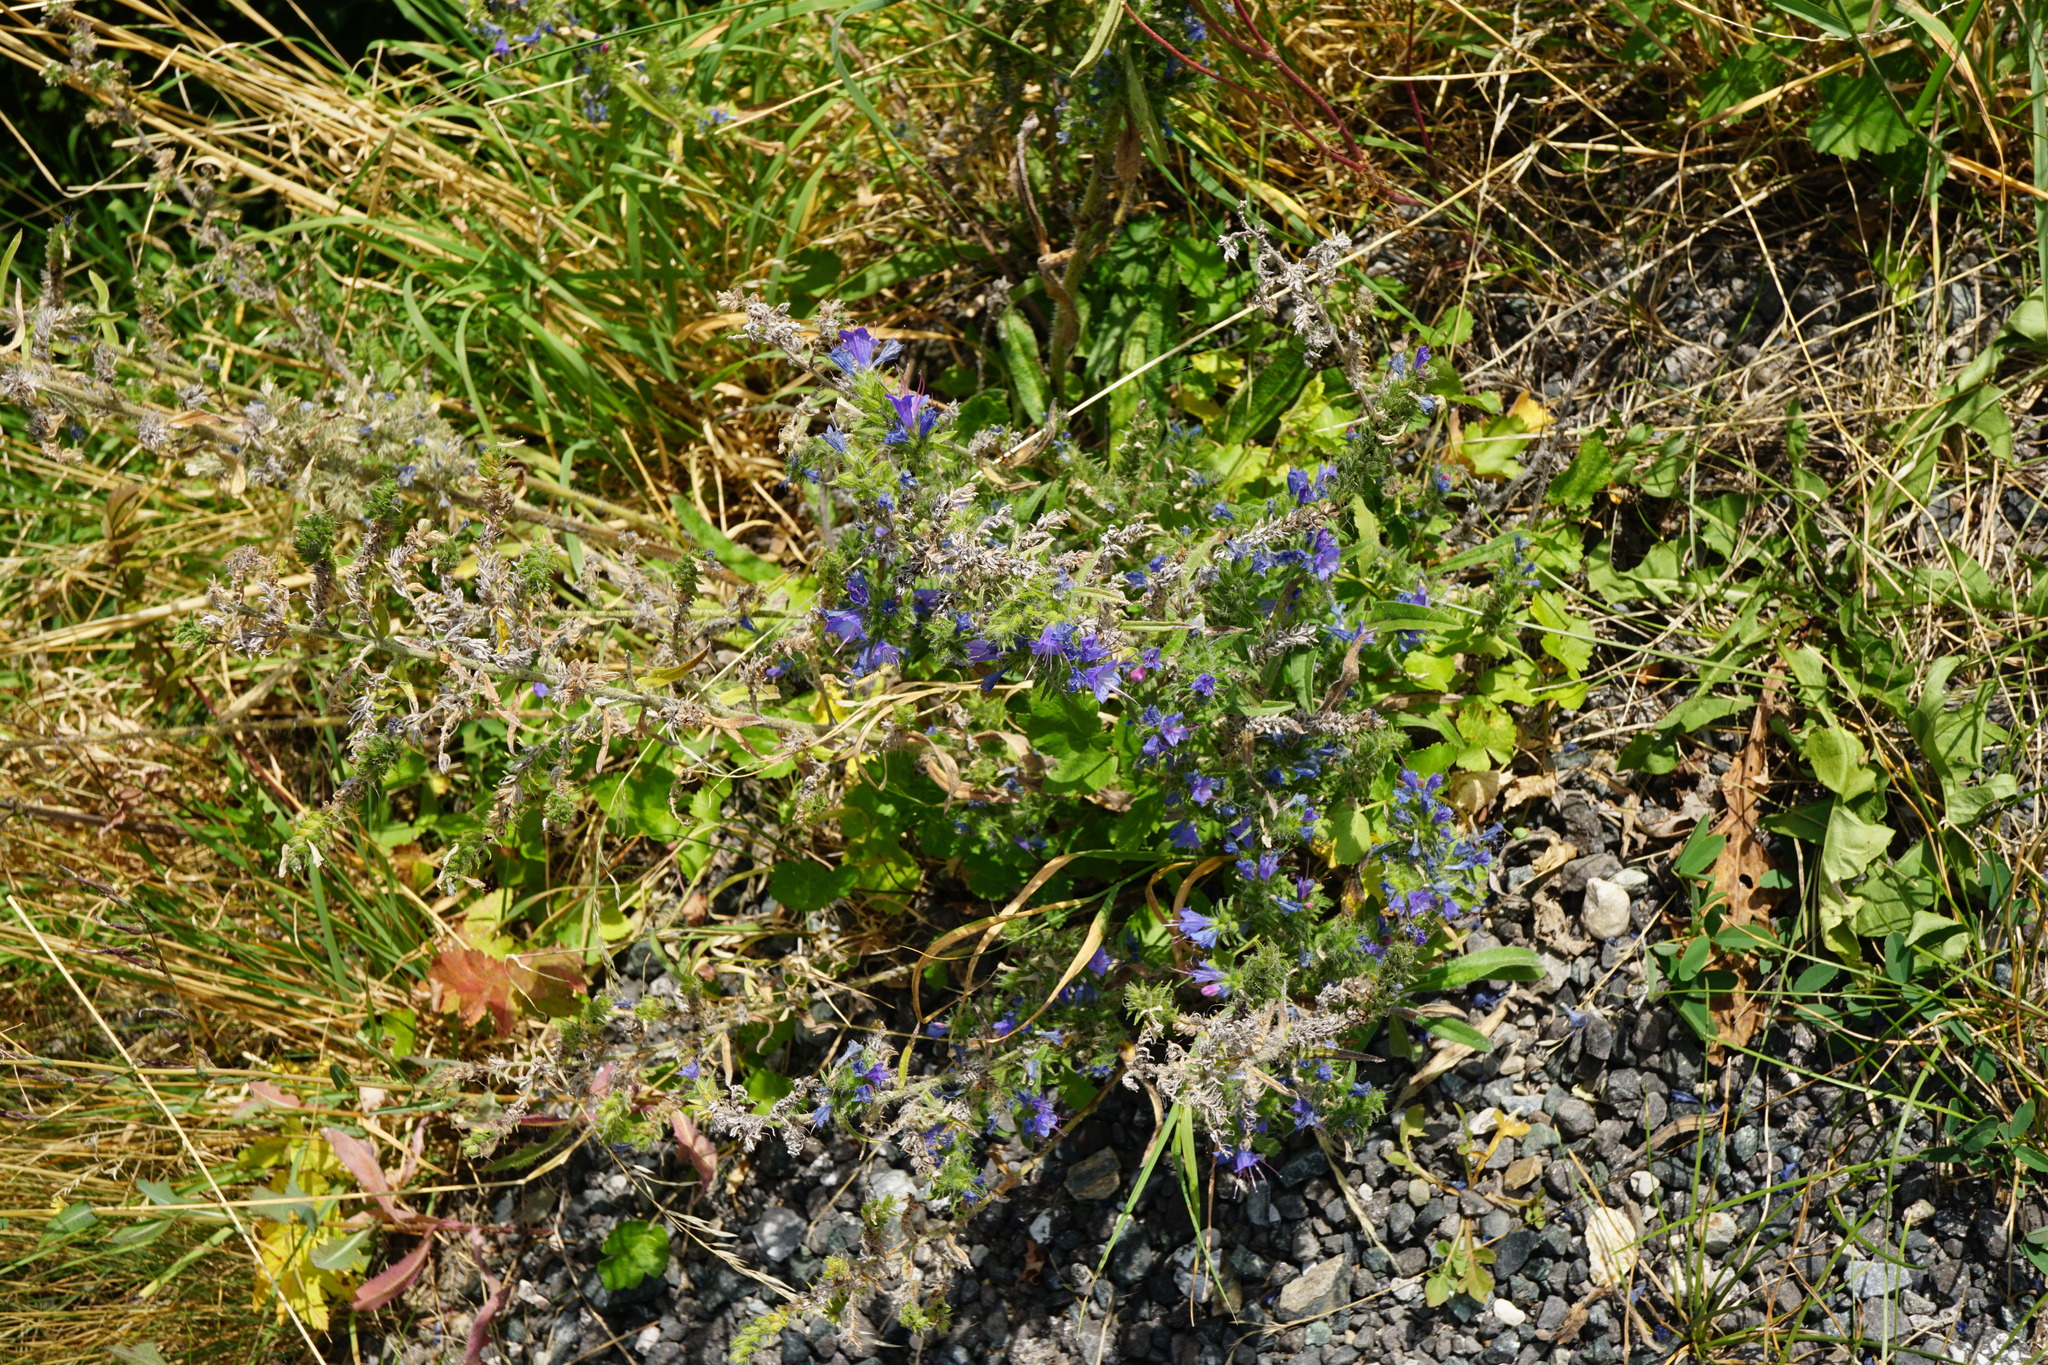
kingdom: Plantae
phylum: Tracheophyta
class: Magnoliopsida
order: Boraginales
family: Boraginaceae
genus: Echium
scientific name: Echium vulgare
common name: Common viper's bugloss
